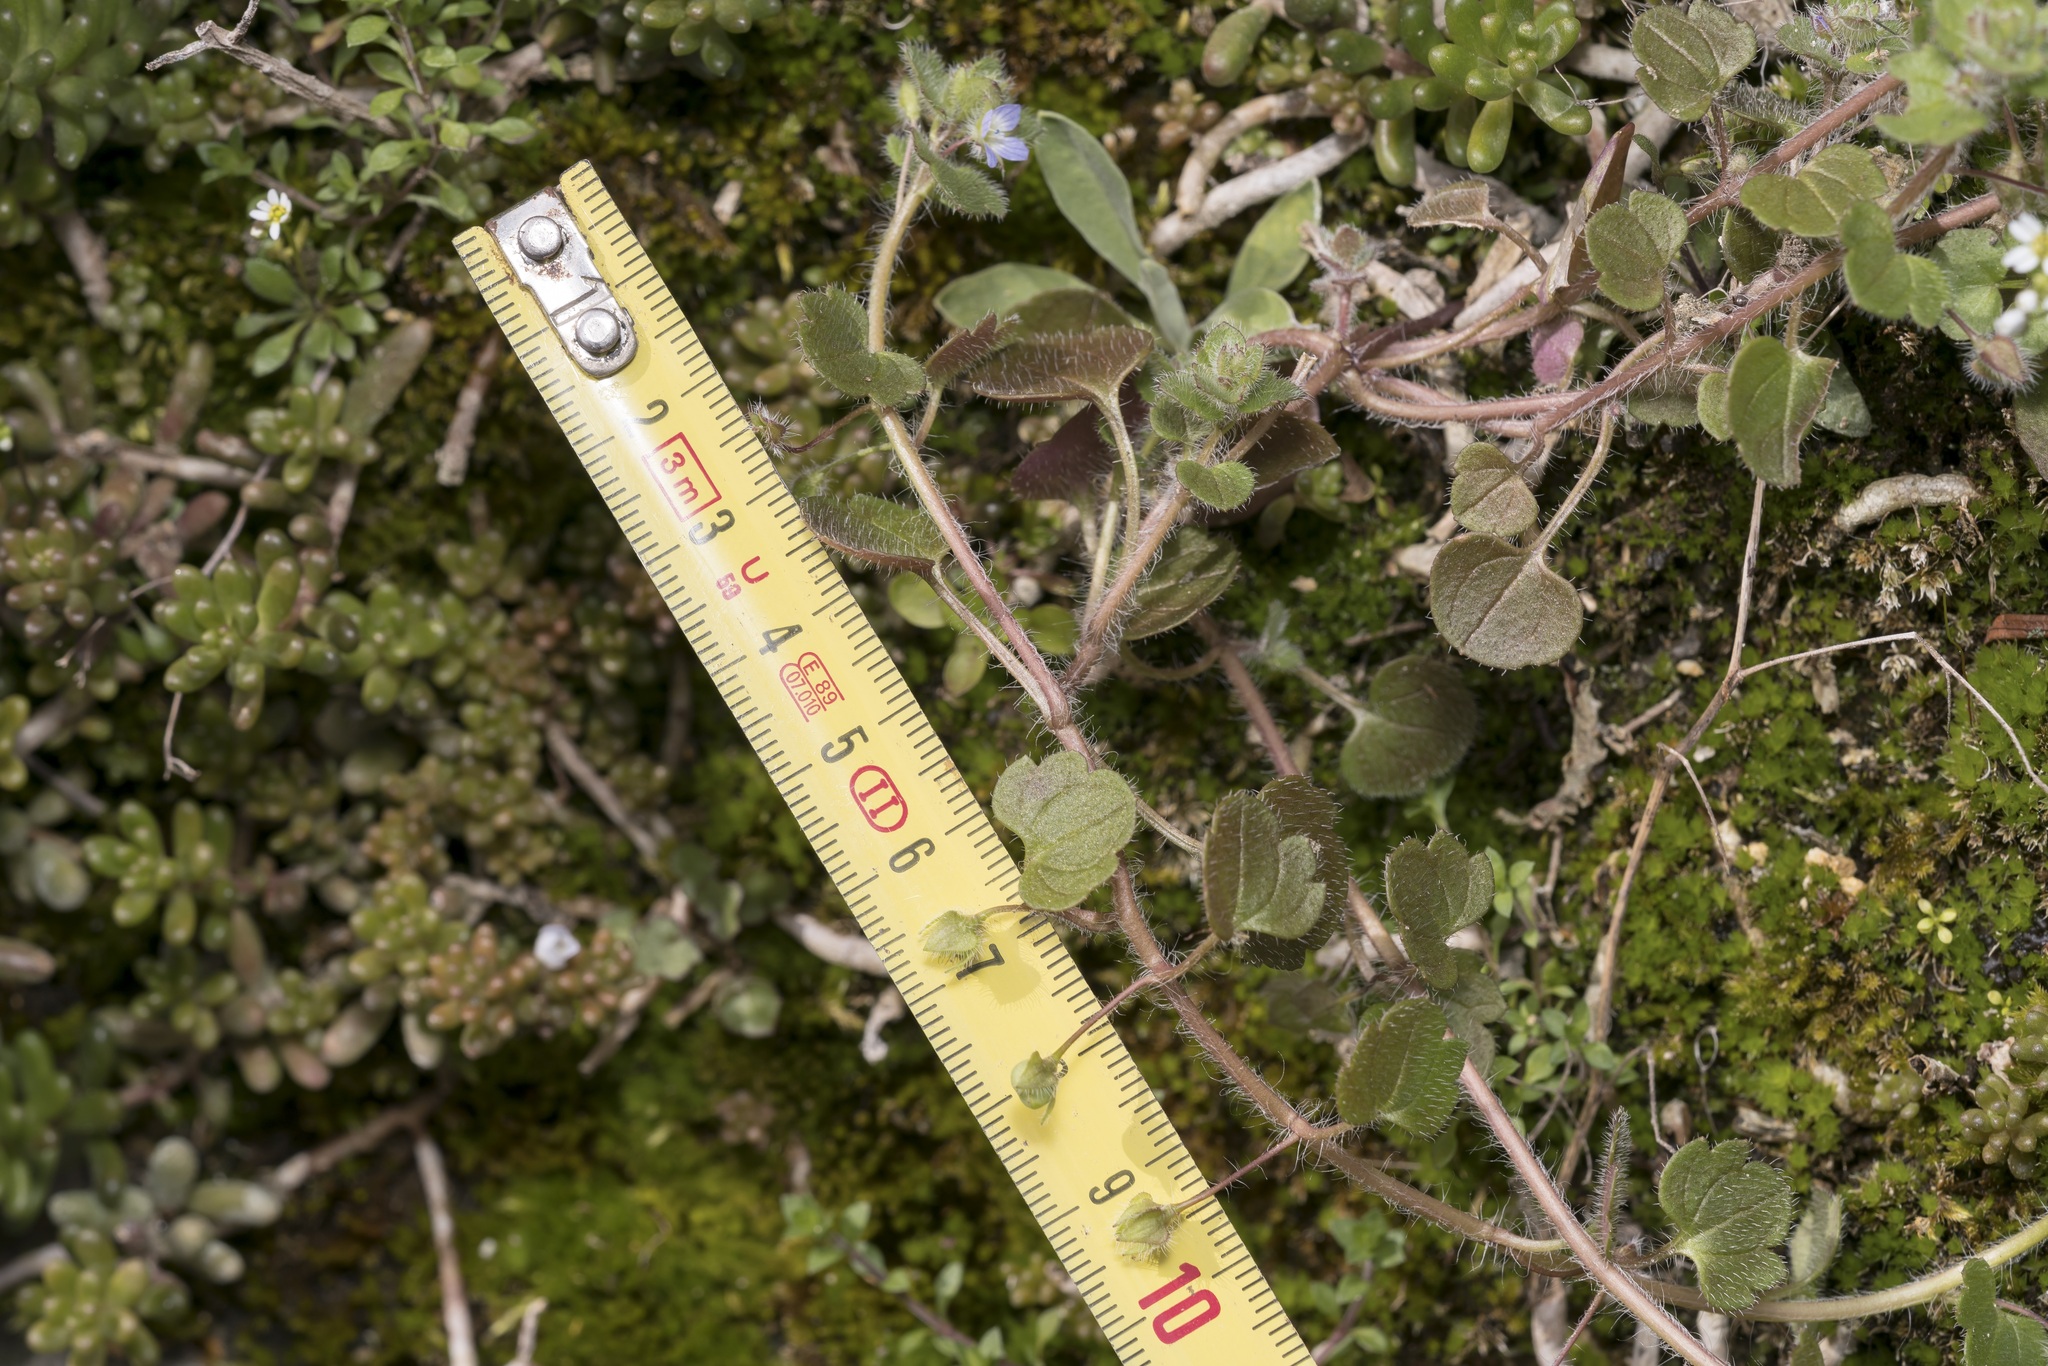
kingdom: Plantae
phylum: Tracheophyta
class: Magnoliopsida
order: Lamiales
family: Plantaginaceae
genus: Veronica
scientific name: Veronica hederifolia
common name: Ivy-leaved speedwell
